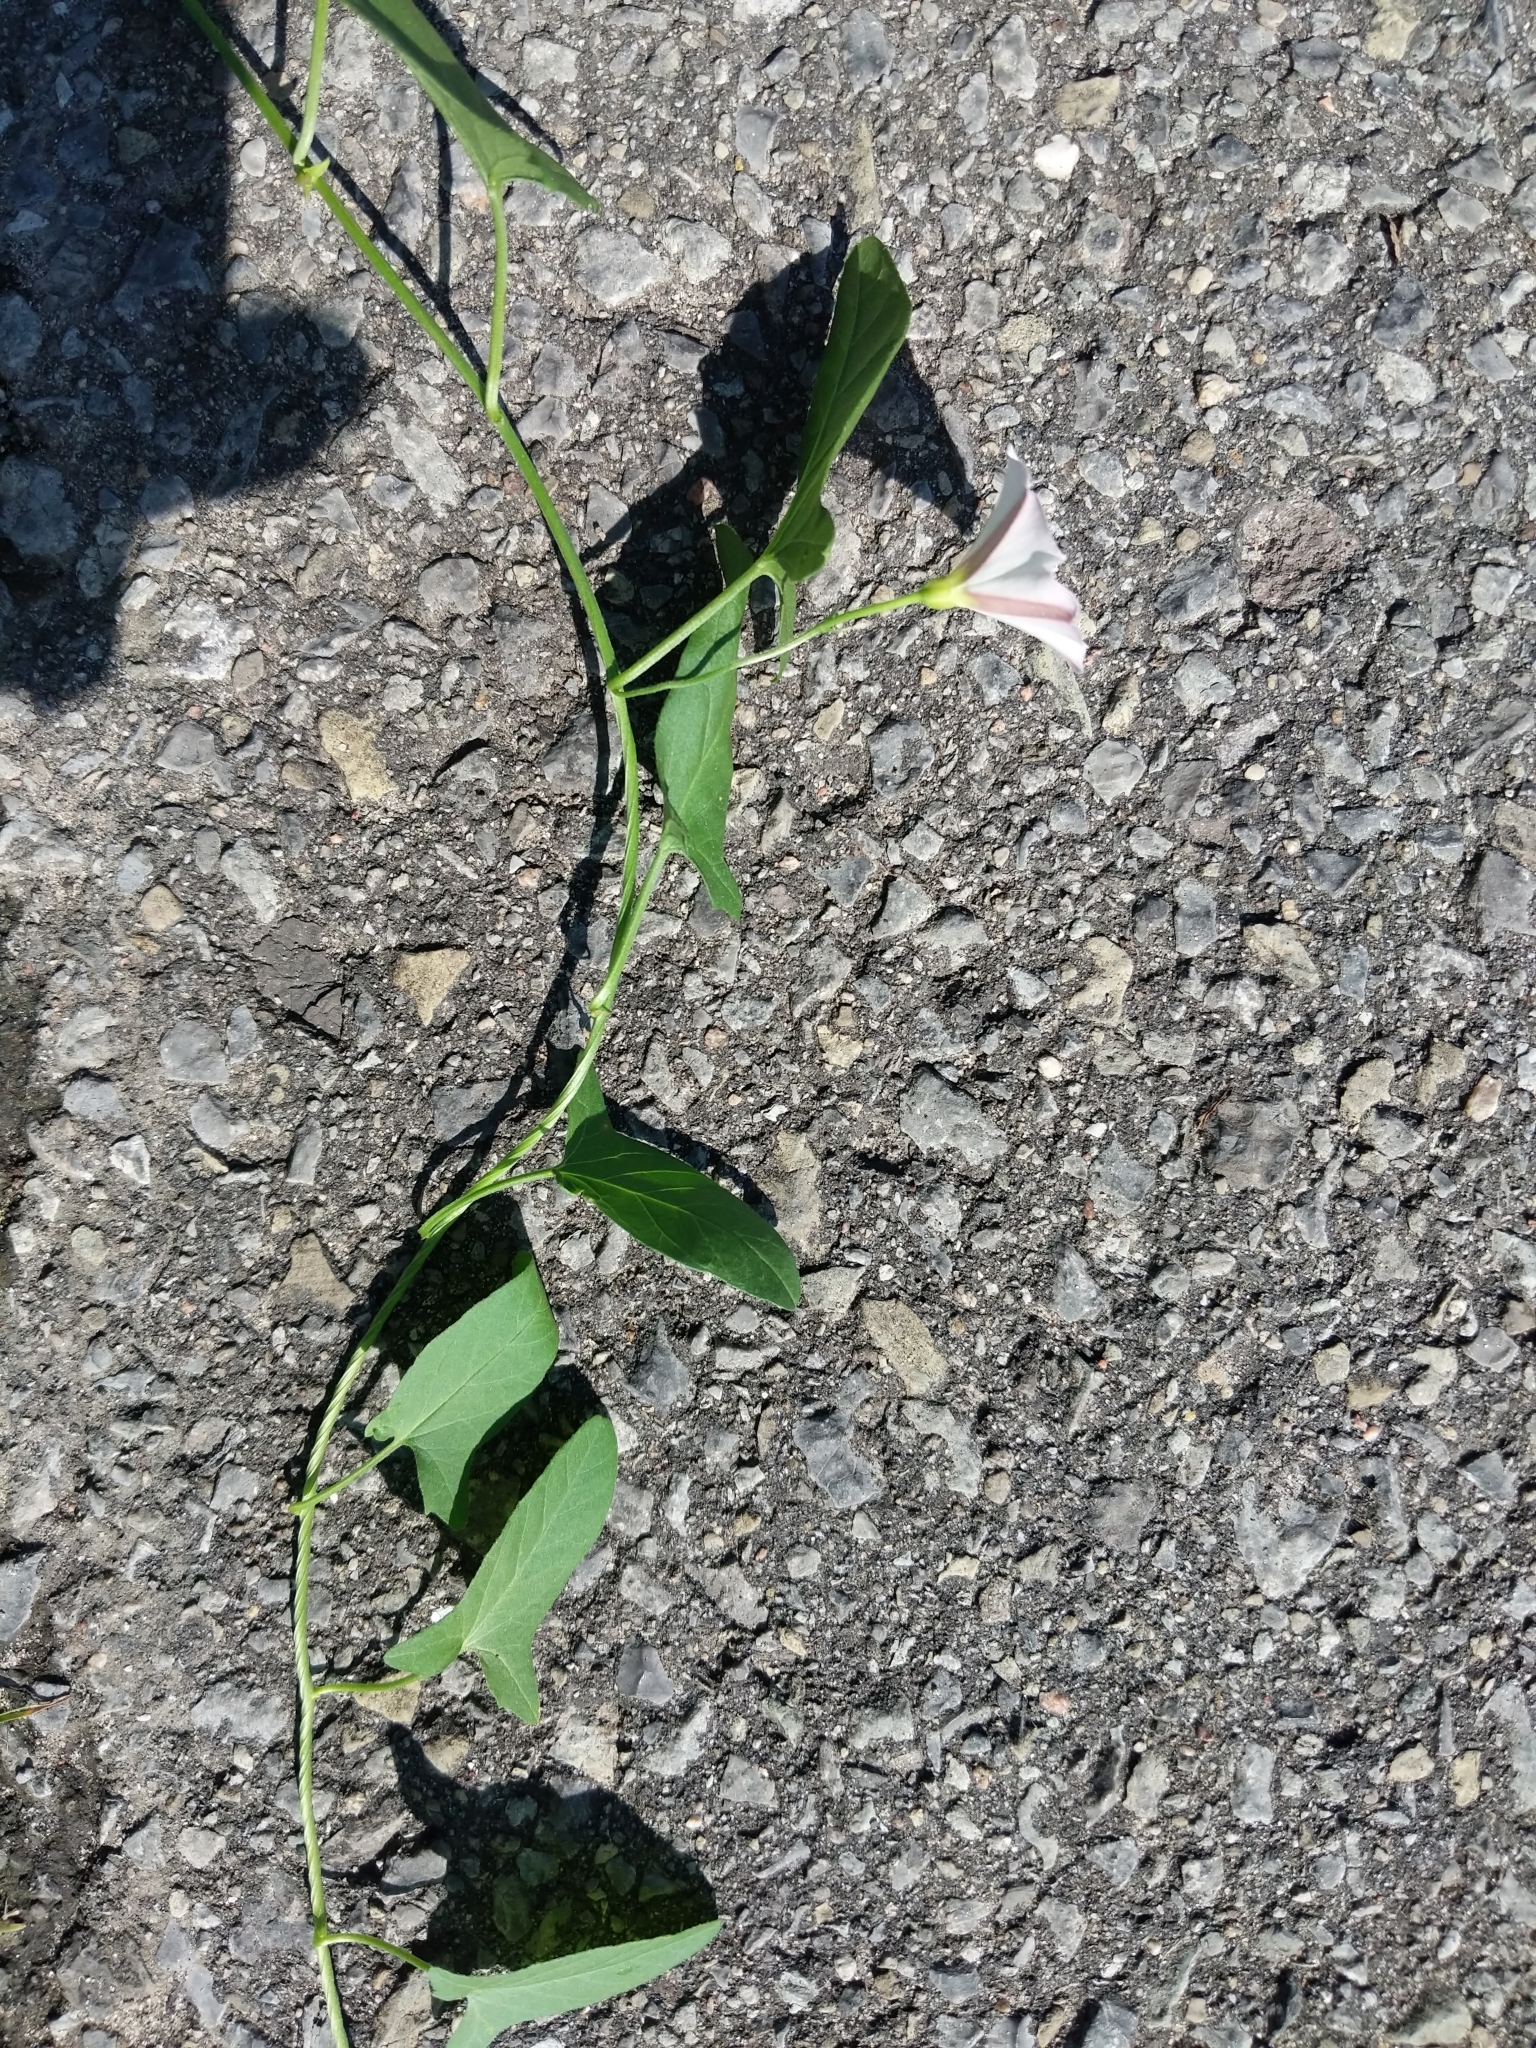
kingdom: Plantae
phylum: Tracheophyta
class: Magnoliopsida
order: Solanales
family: Convolvulaceae
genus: Convolvulus
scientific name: Convolvulus arvensis
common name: Field bindweed
